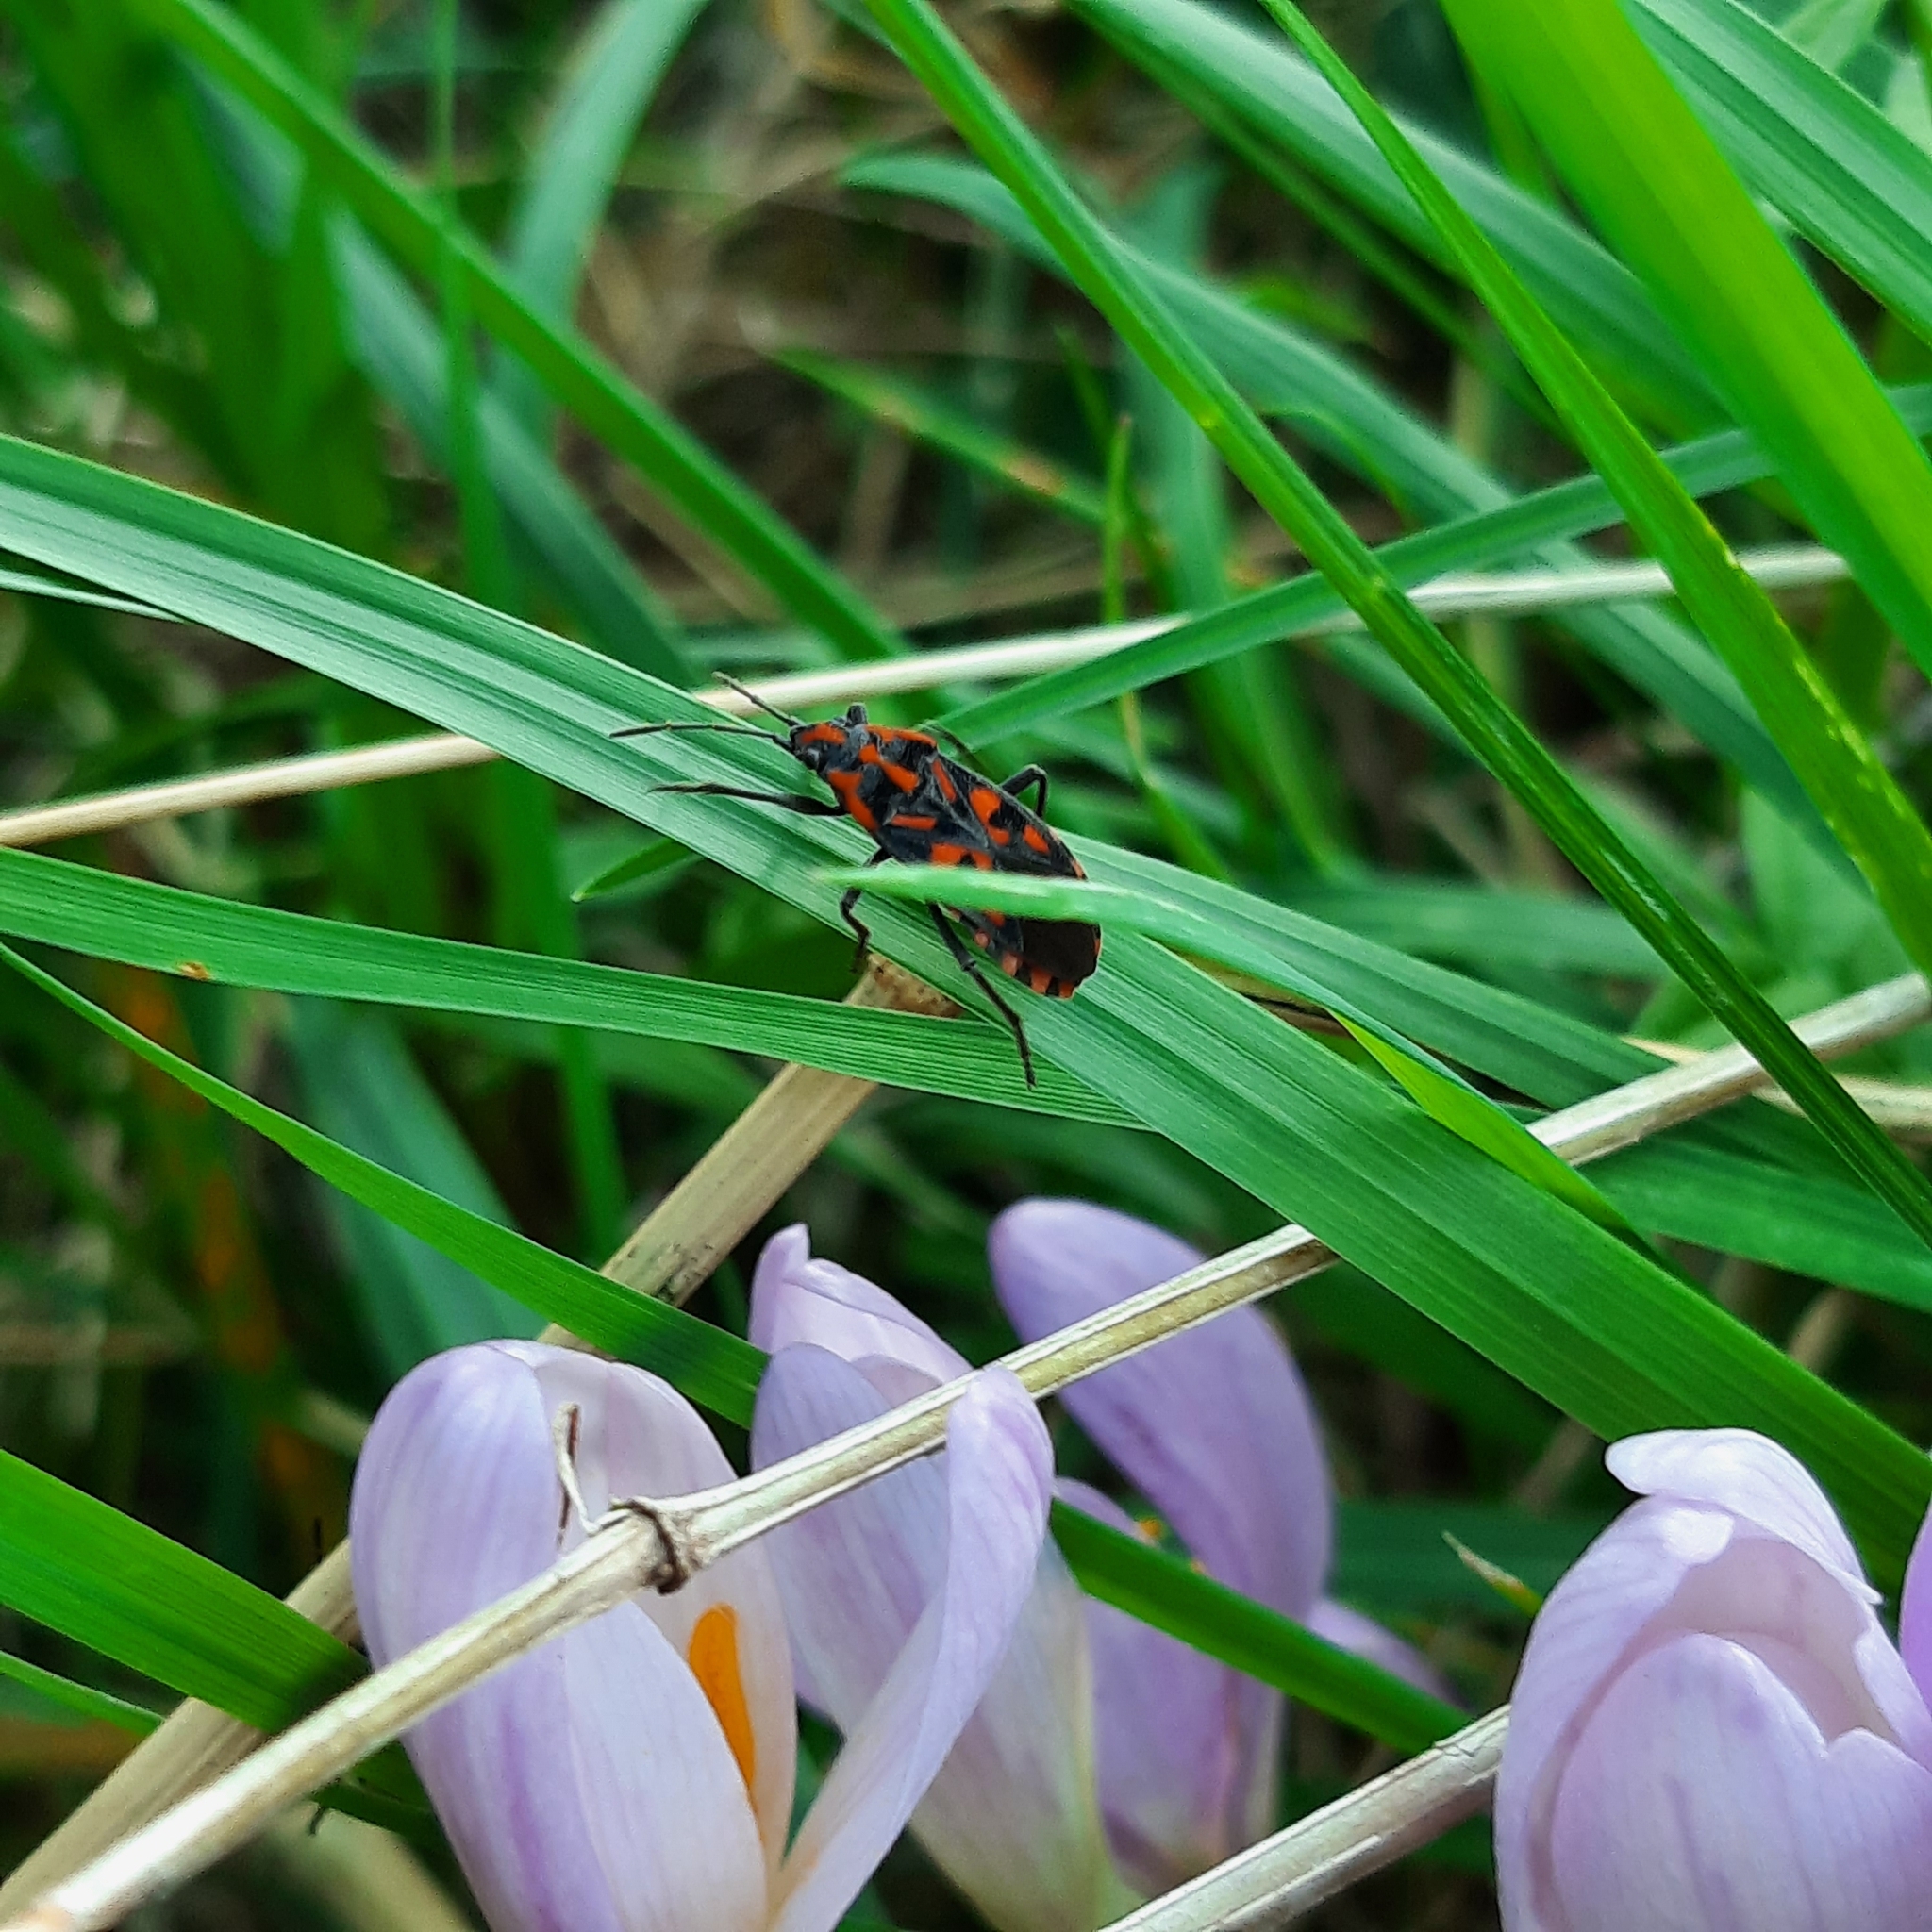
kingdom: Animalia
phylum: Arthropoda
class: Insecta
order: Hemiptera
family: Lygaeidae
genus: Spilostethus
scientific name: Spilostethus saxatilis
